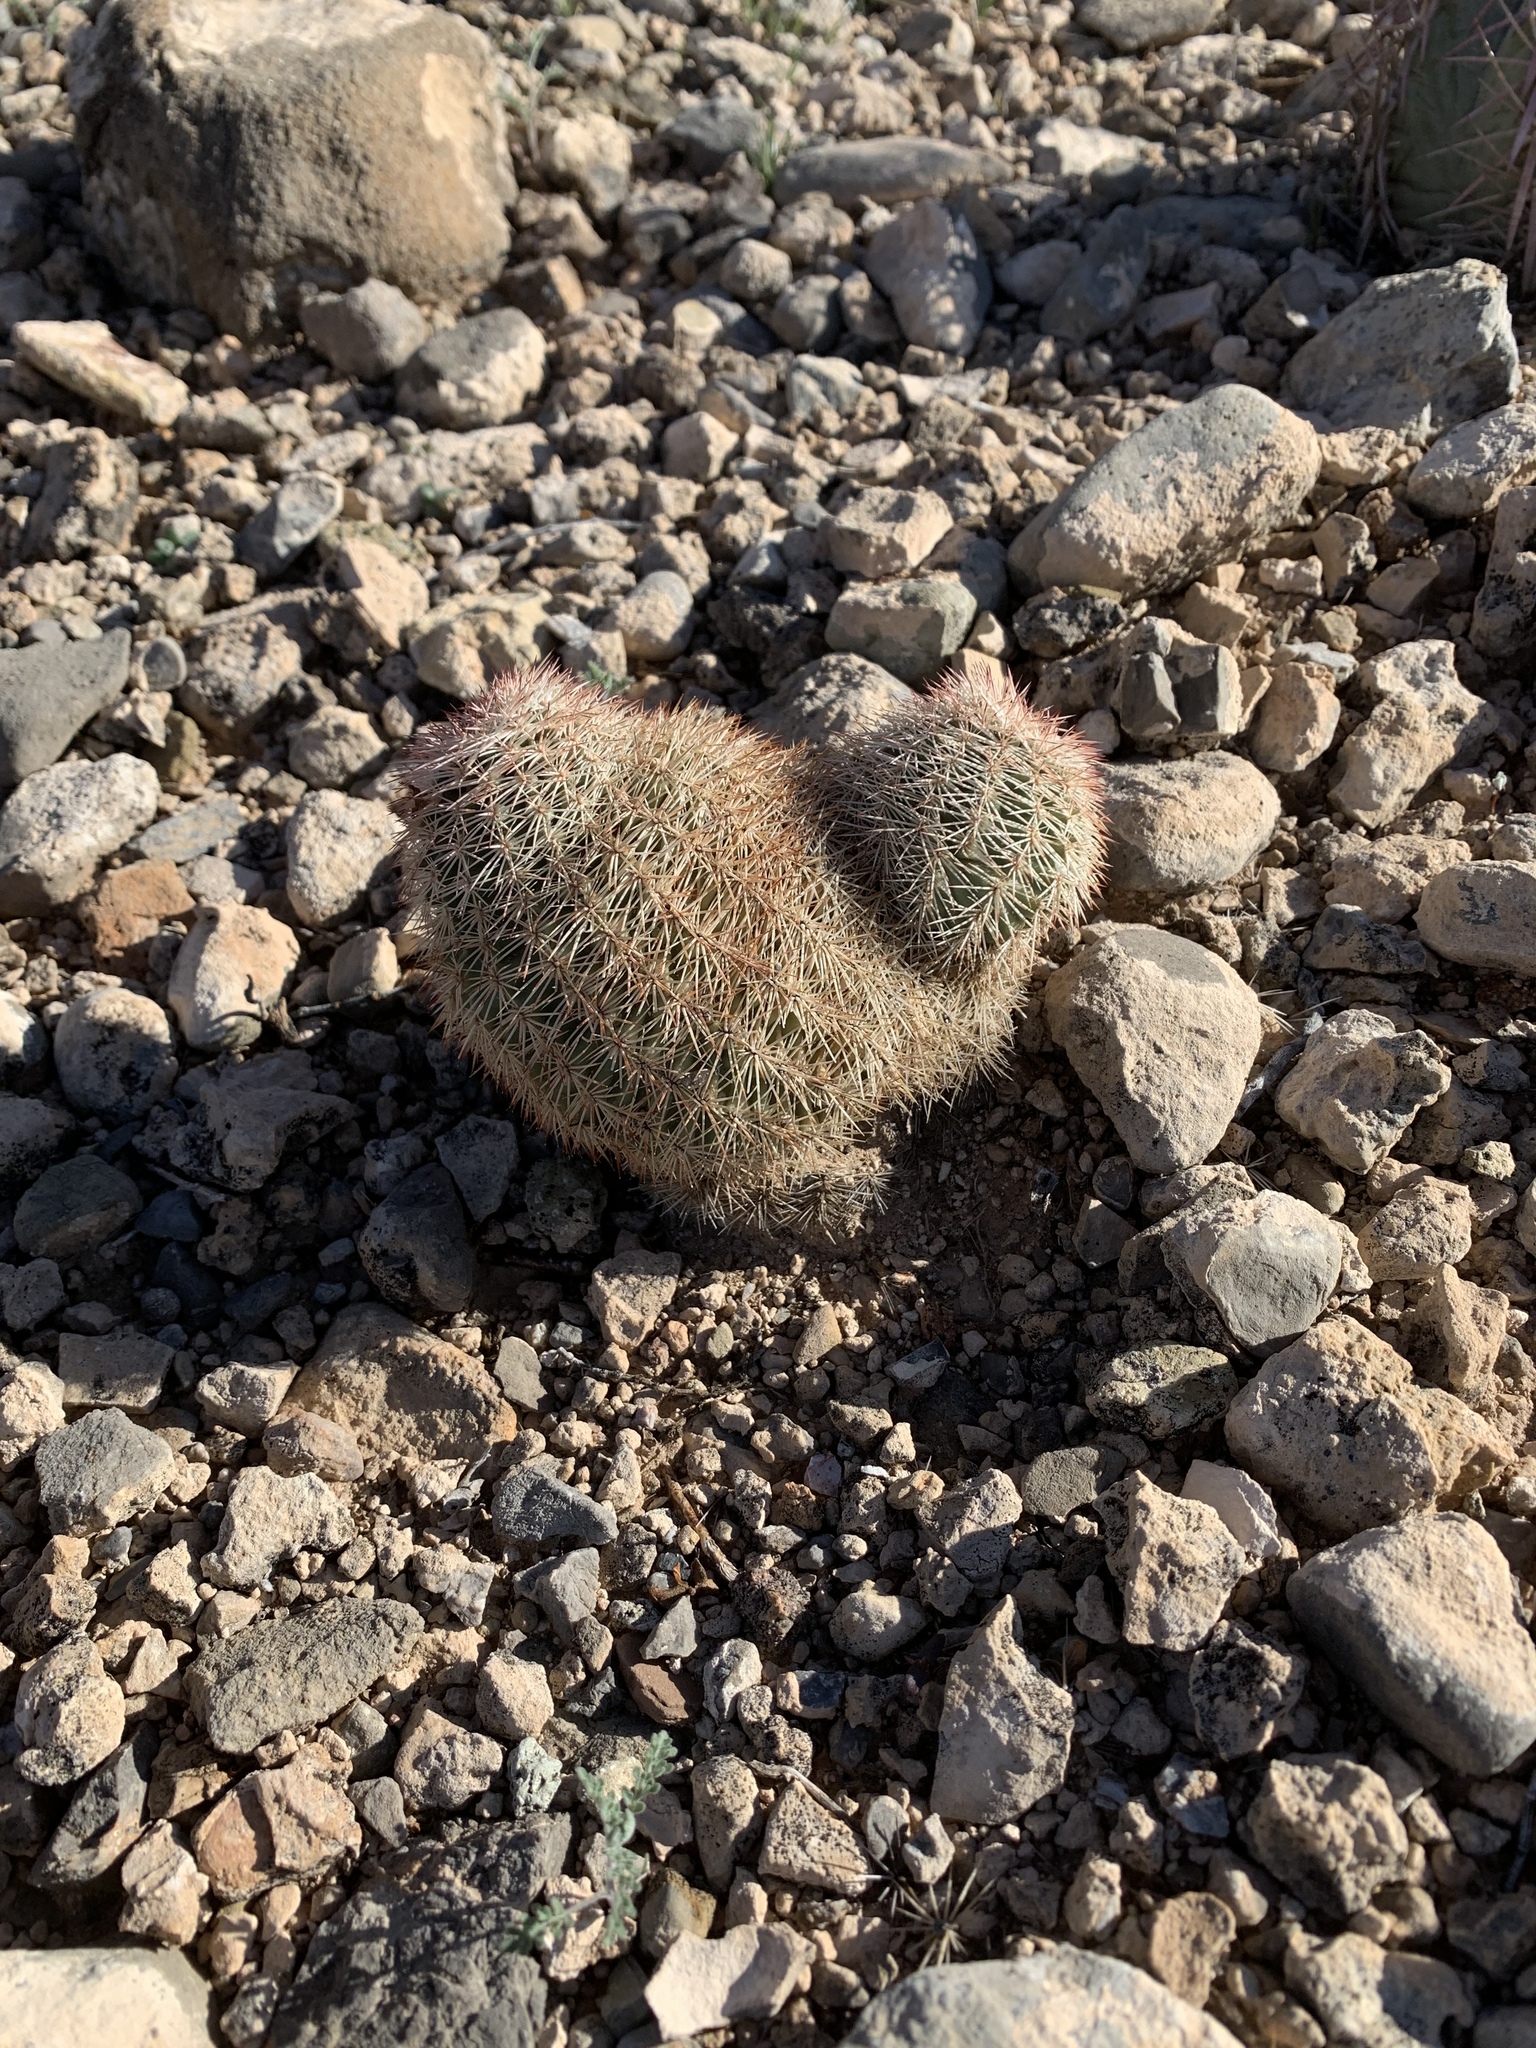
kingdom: Plantae
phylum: Tracheophyta
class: Magnoliopsida
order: Caryophyllales
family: Cactaceae
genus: Echinocereus
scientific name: Echinocereus dasyacanthus
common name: Spiny hedgehog cactus
